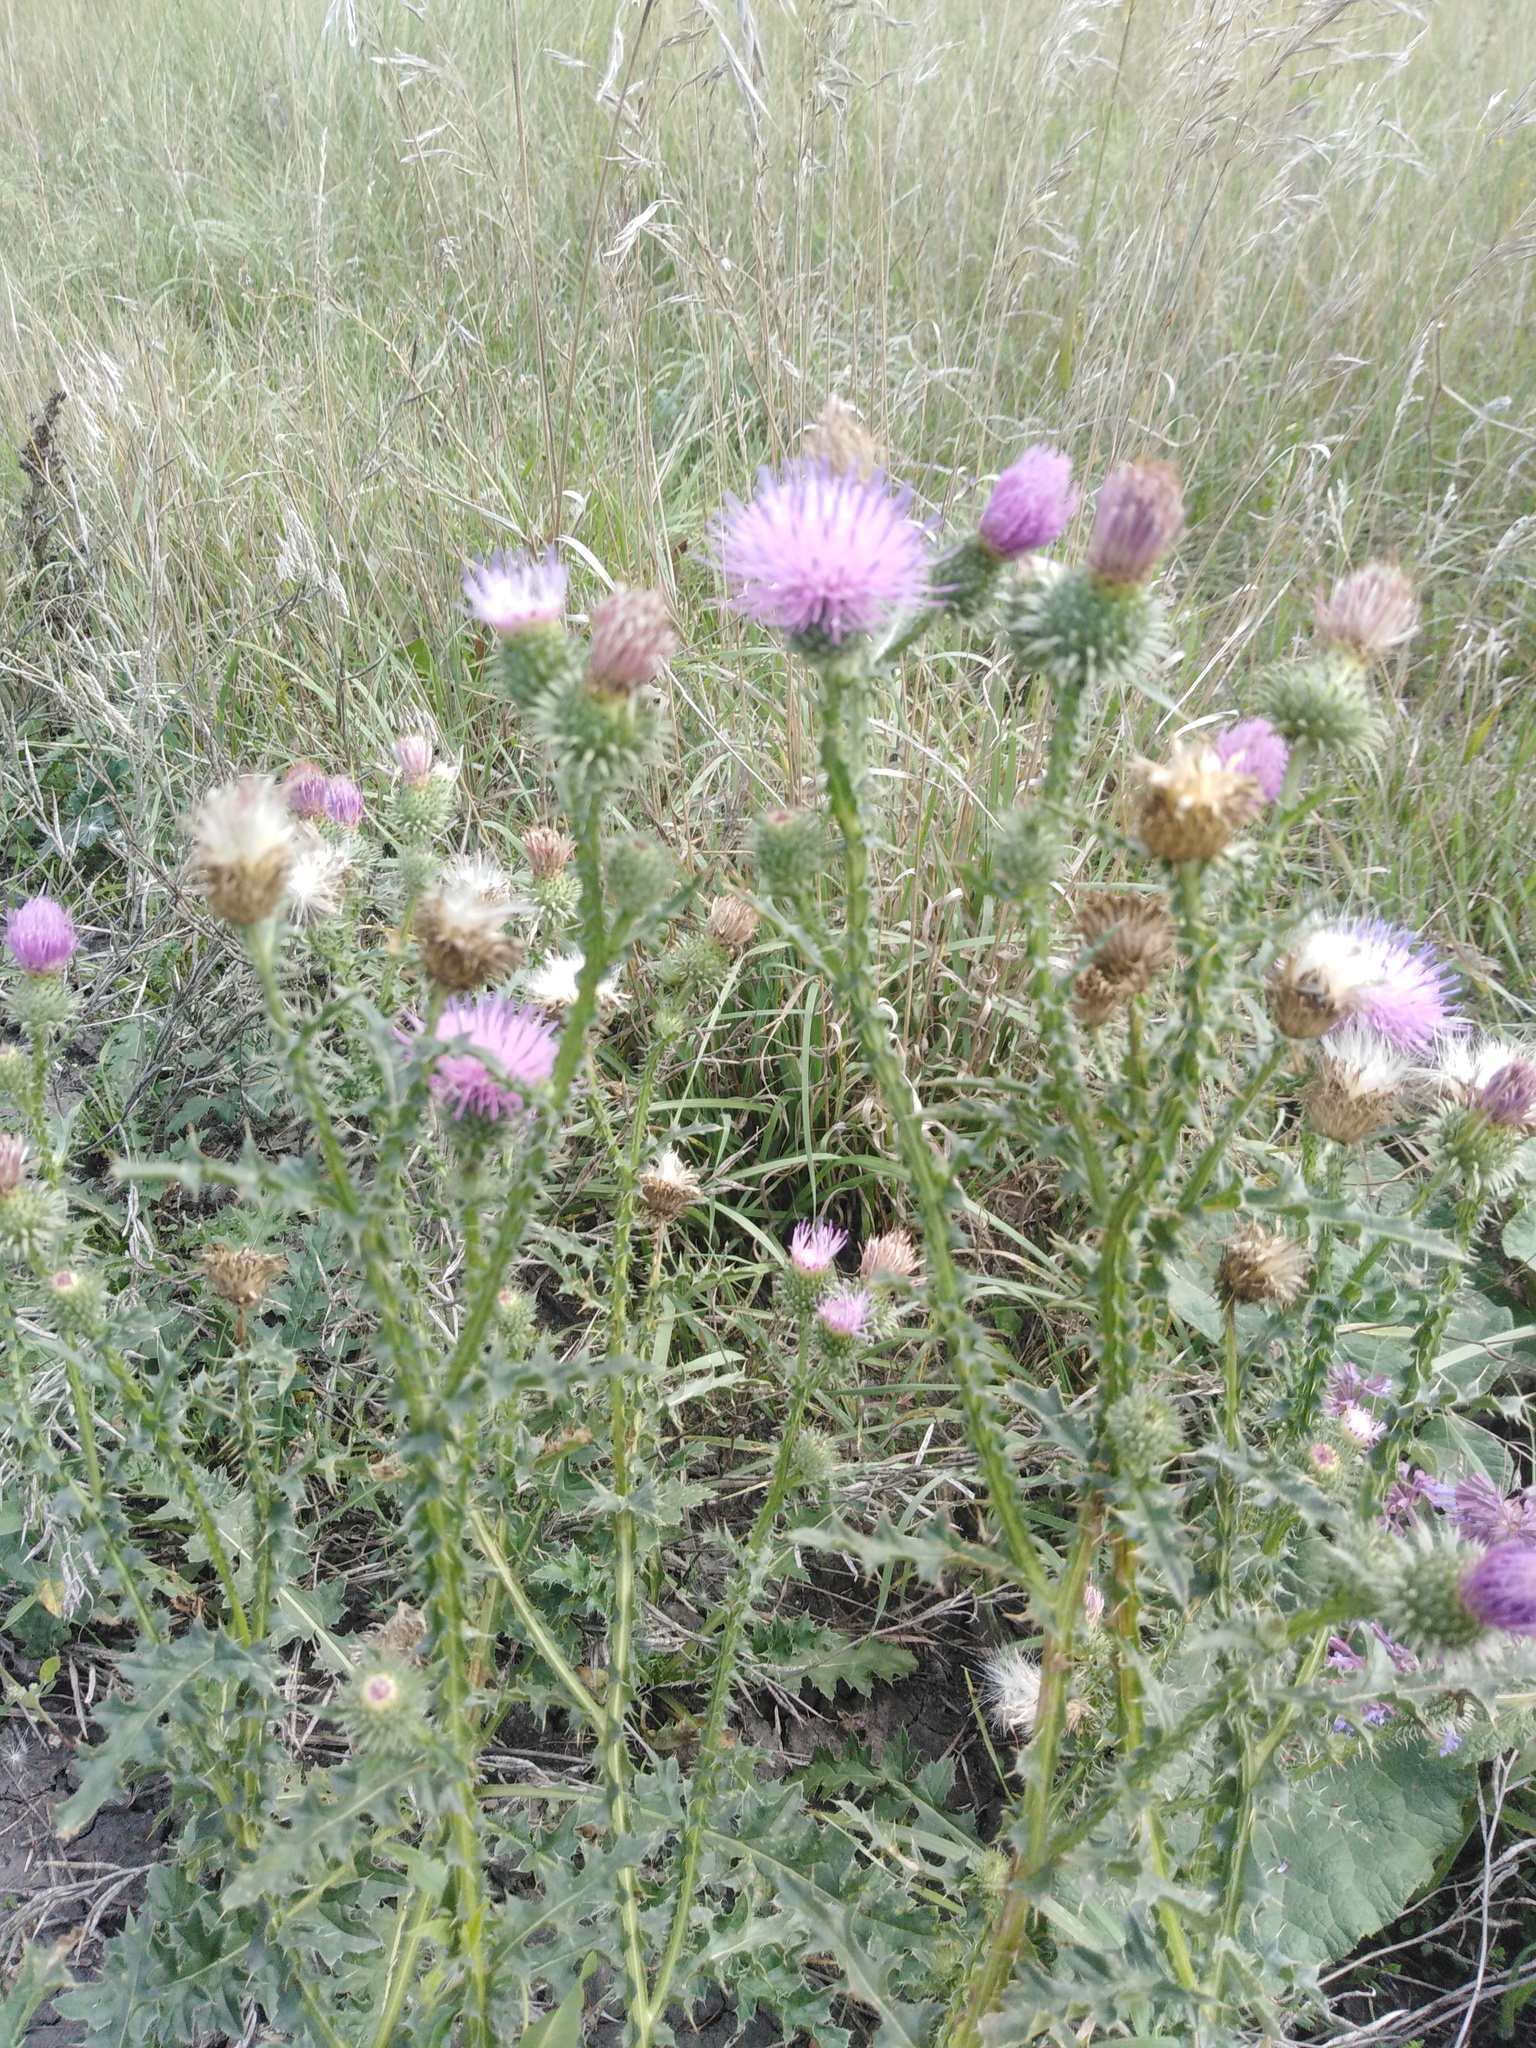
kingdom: Plantae
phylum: Tracheophyta
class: Magnoliopsida
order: Rosales
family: Rosaceae
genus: Prunus
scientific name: Prunus spinosa
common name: Blackthorn
